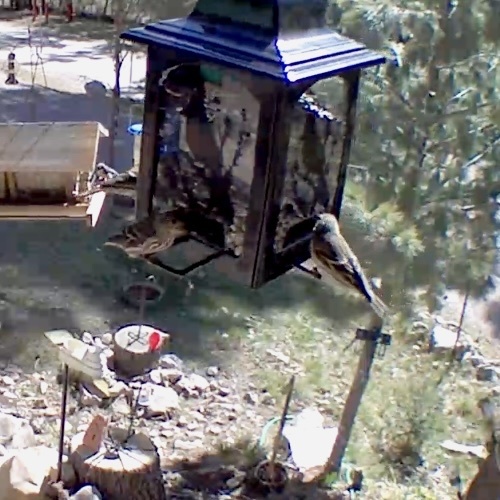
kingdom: Animalia
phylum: Chordata
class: Aves
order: Passeriformes
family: Fringillidae
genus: Spinus
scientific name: Spinus pinus
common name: Pine siskin
